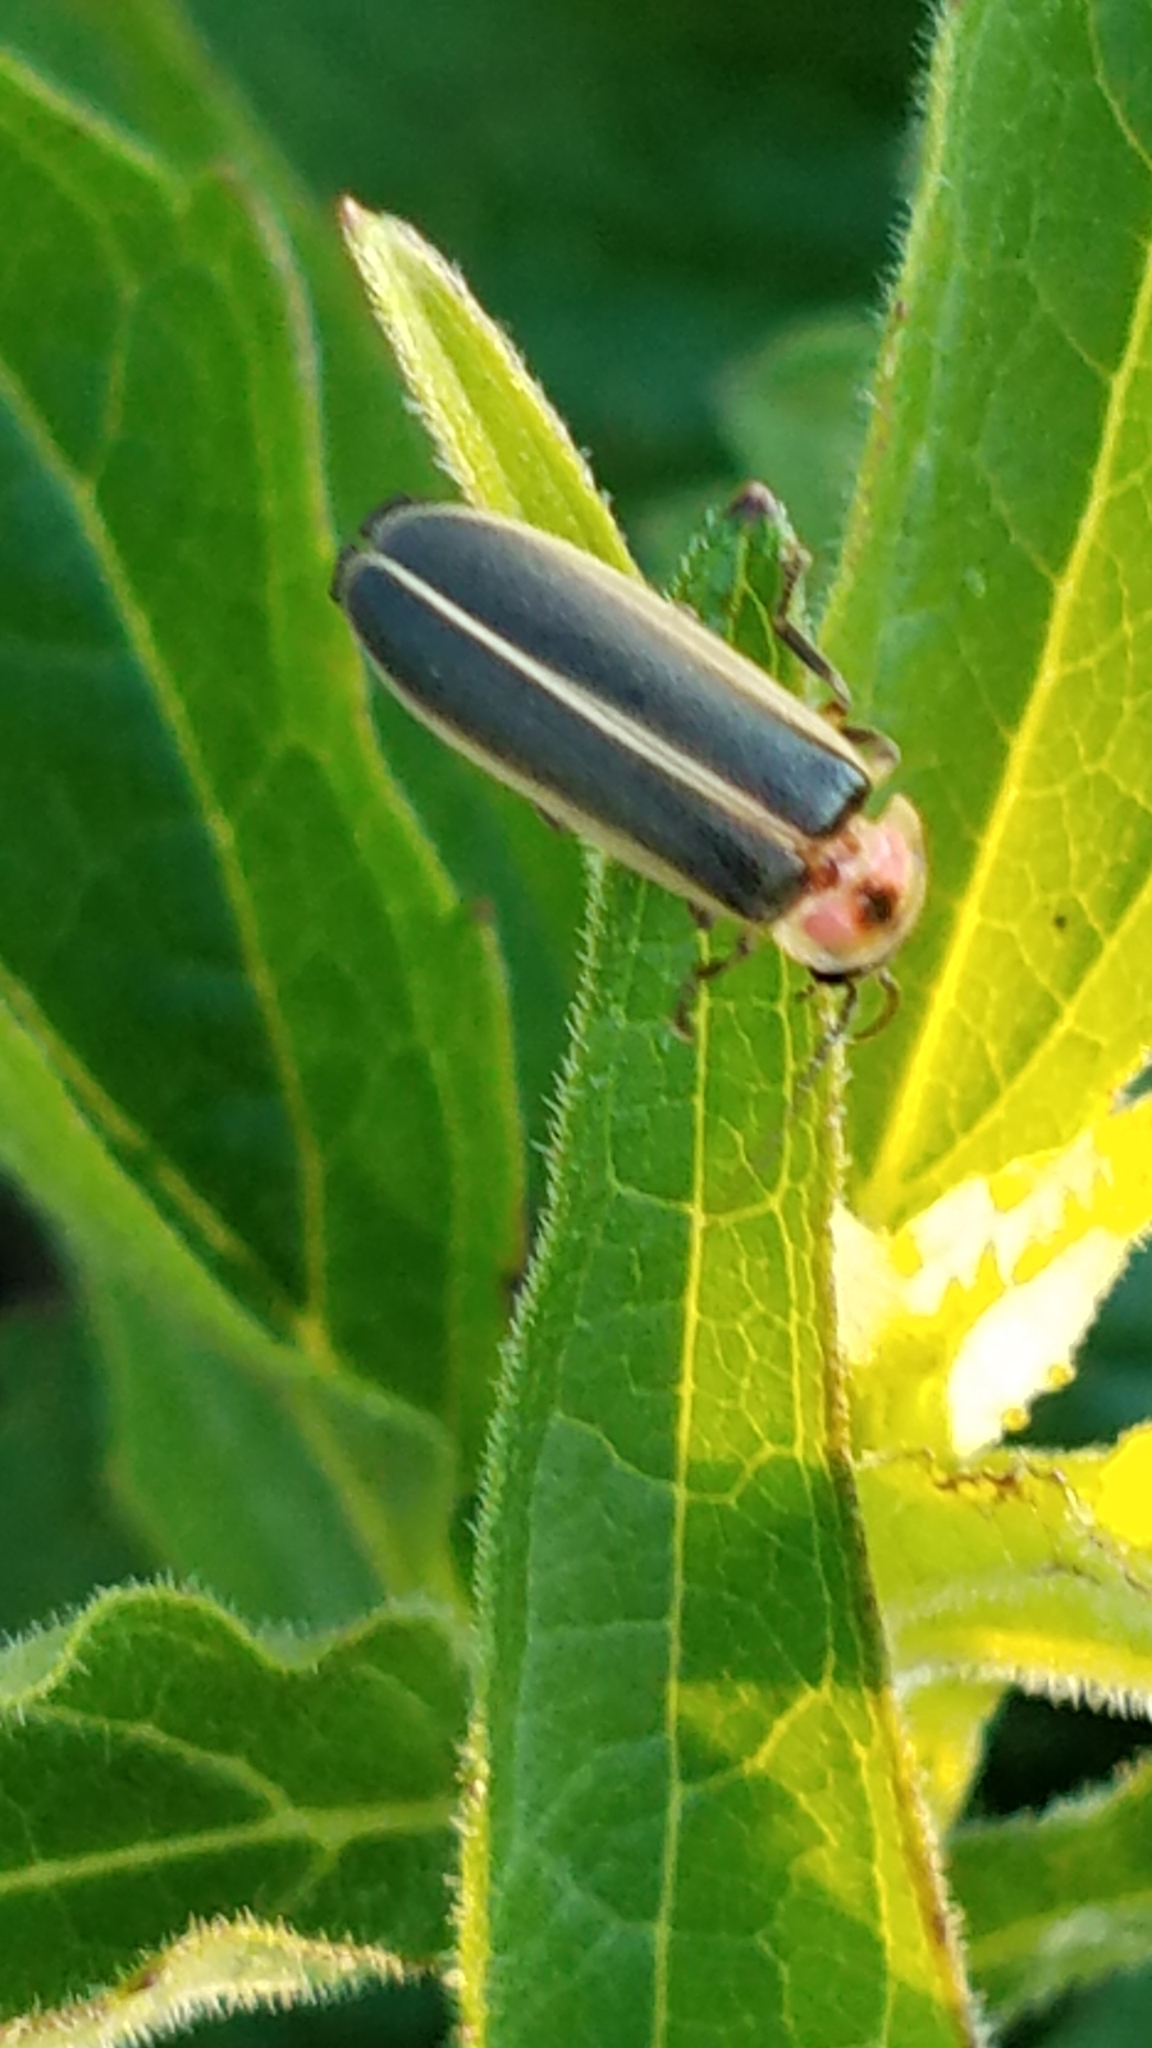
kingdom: Animalia
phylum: Arthropoda
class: Insecta
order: Coleoptera
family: Lampyridae
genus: Photinus
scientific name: Photinus pyralis
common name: Big dipper firefly
